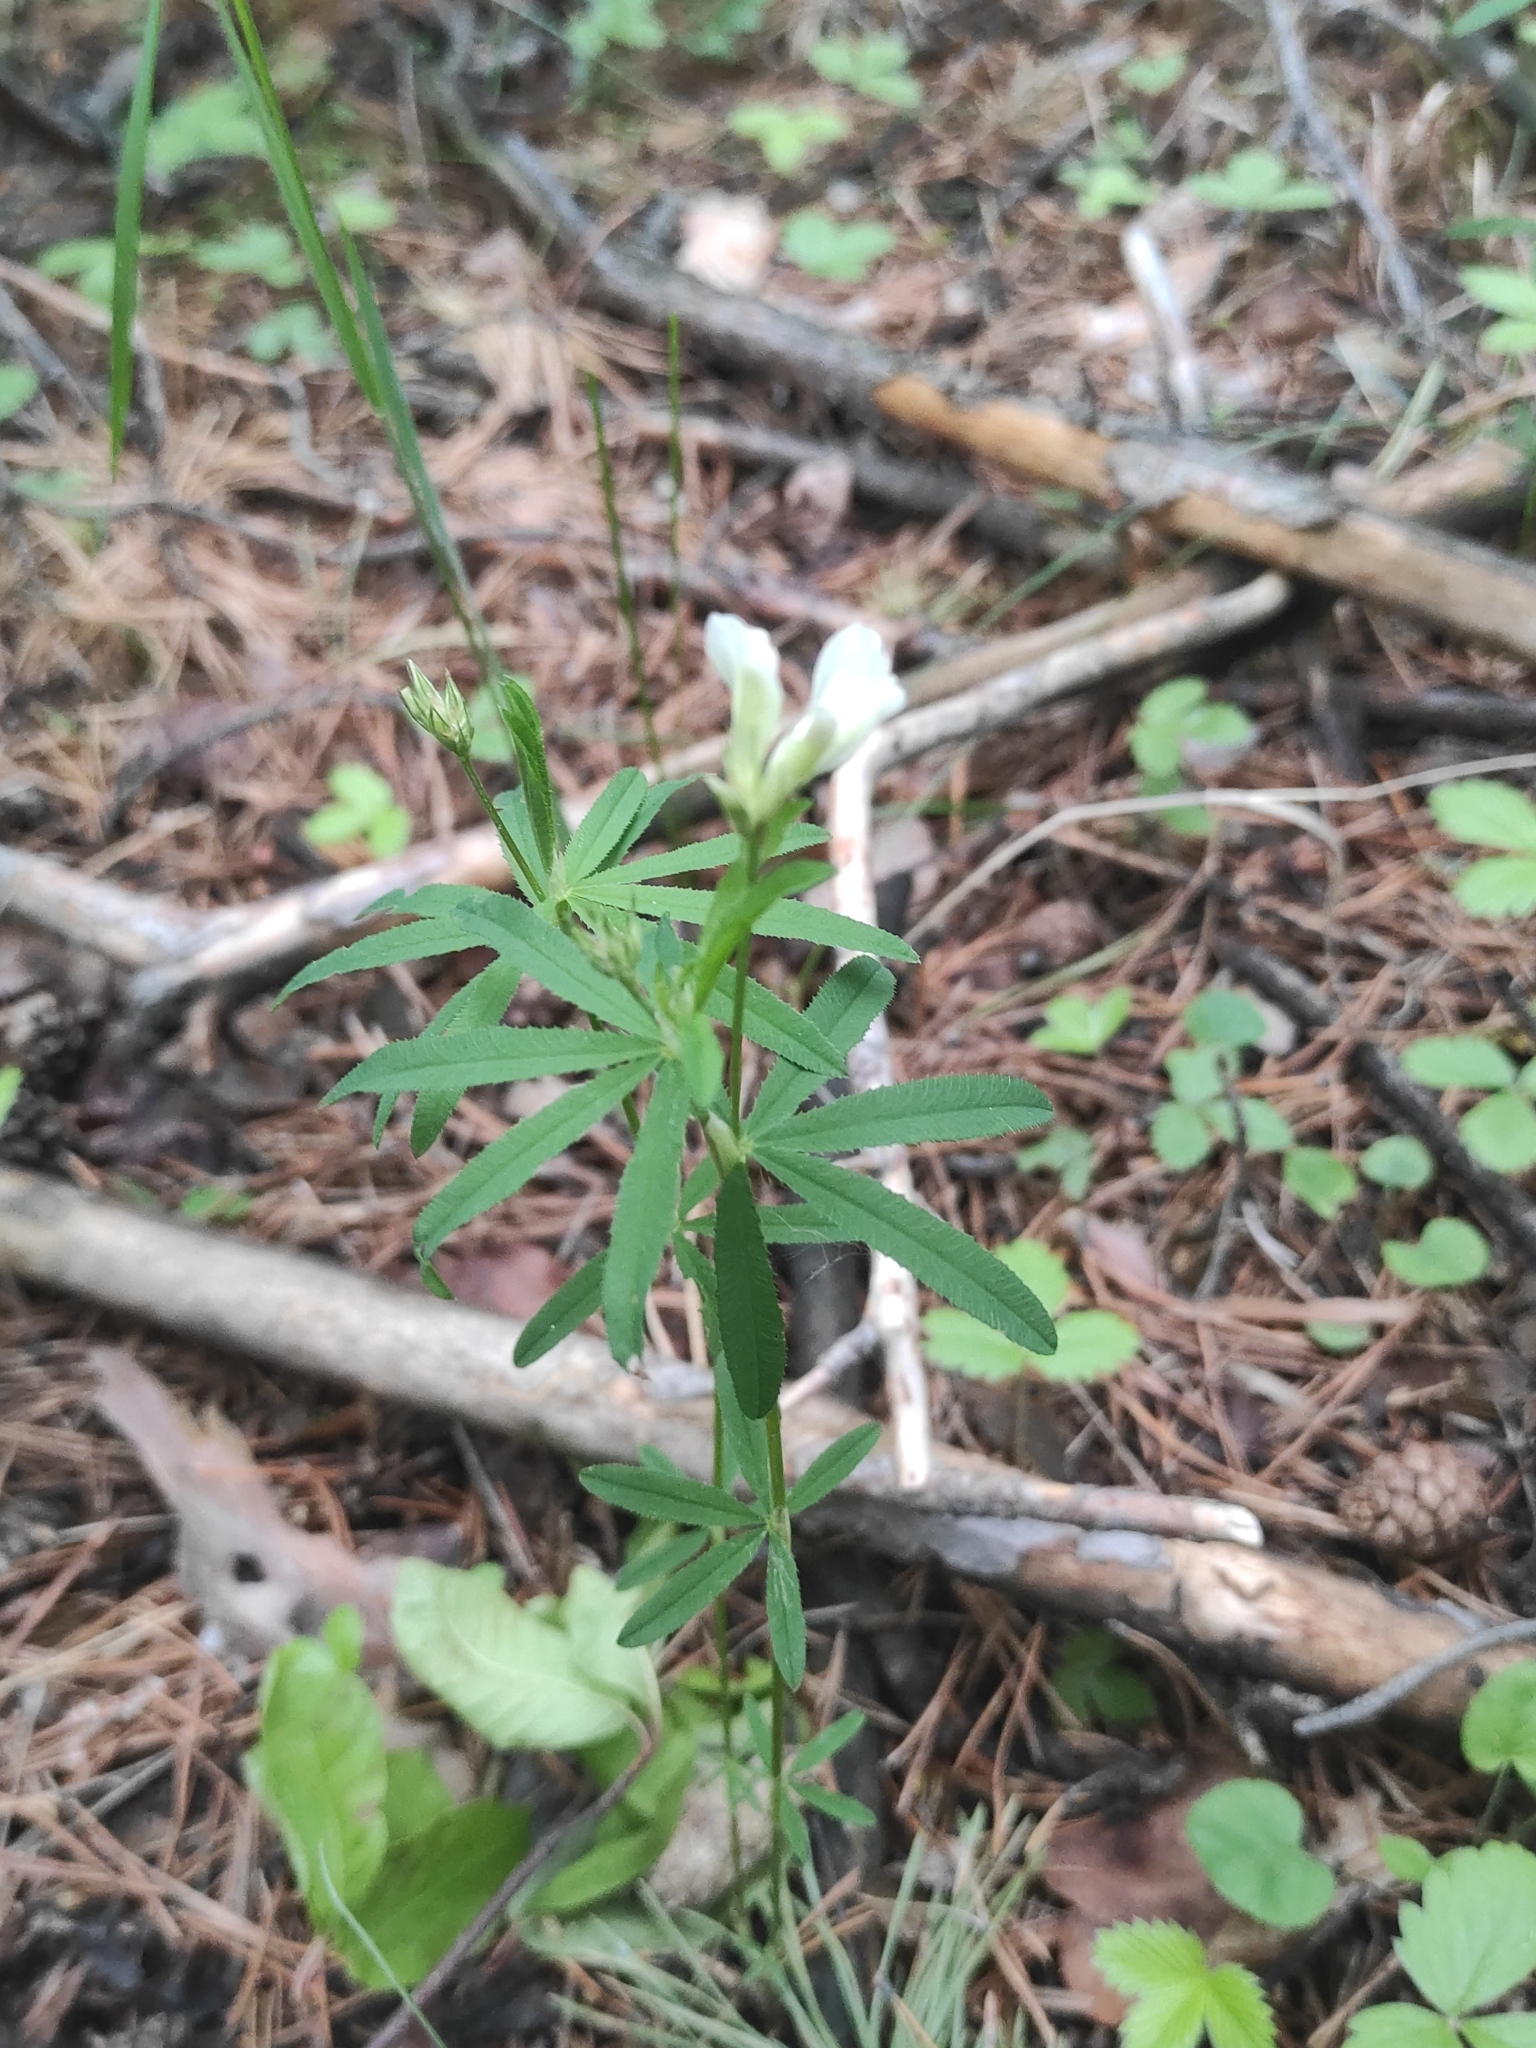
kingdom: Plantae
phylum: Tracheophyta
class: Magnoliopsida
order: Fabales
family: Fabaceae
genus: Trifolium
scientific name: Trifolium lupinaster
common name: Lupine clover
